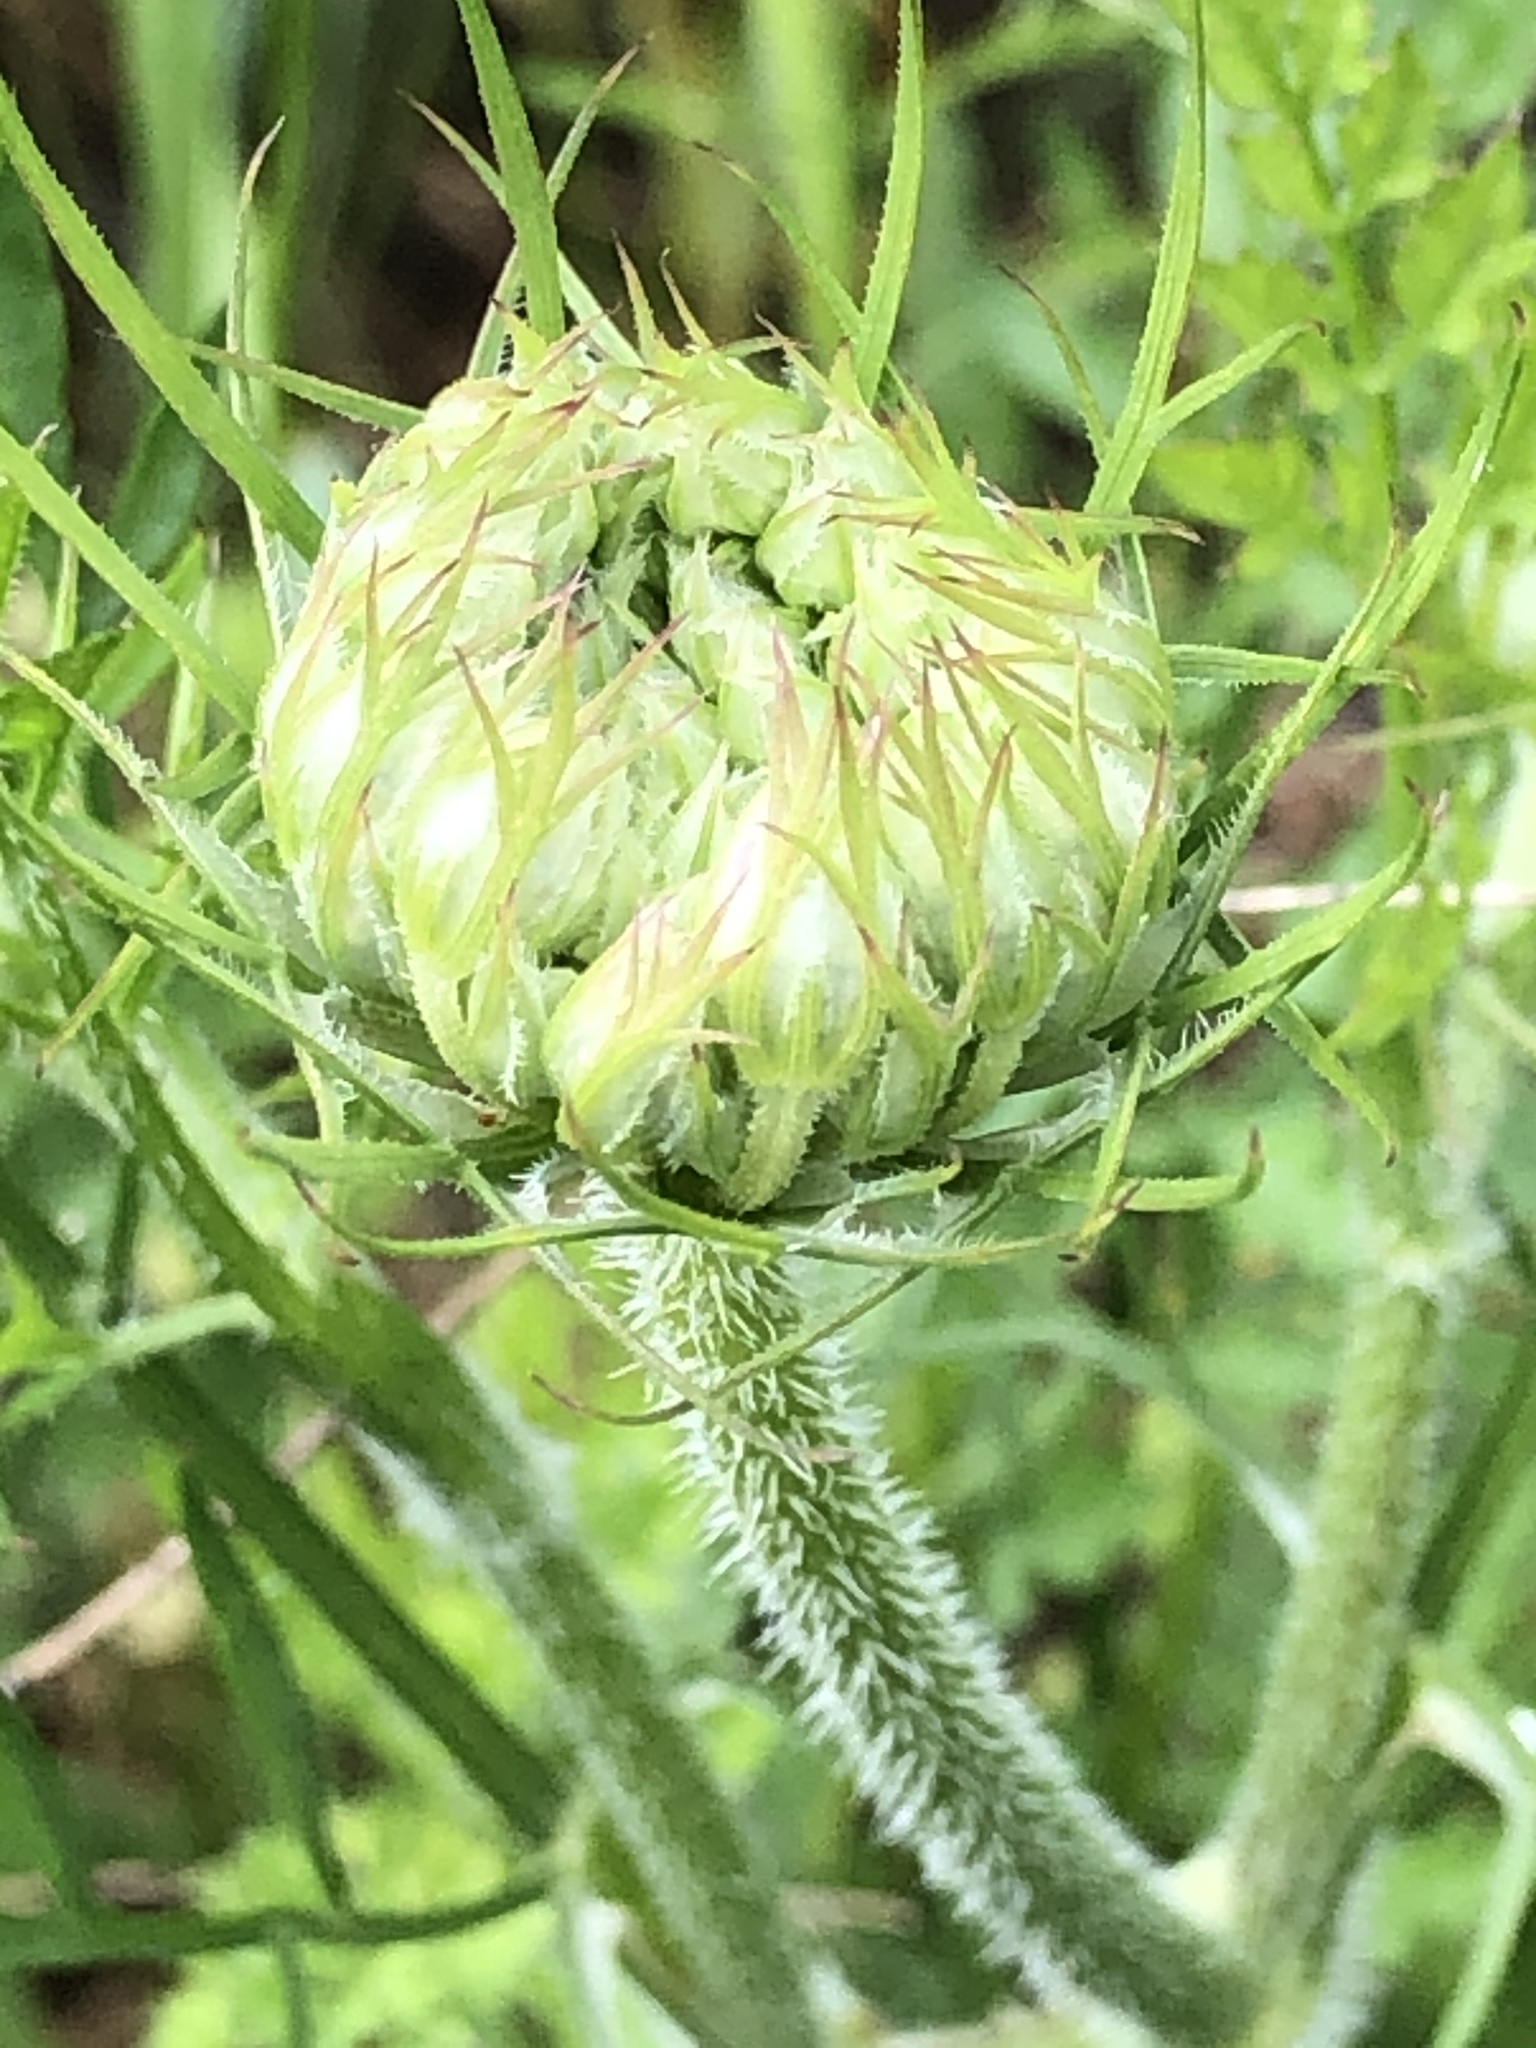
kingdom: Plantae
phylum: Tracheophyta
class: Magnoliopsida
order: Apiales
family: Apiaceae
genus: Daucus
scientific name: Daucus carota
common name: Wild carrot
